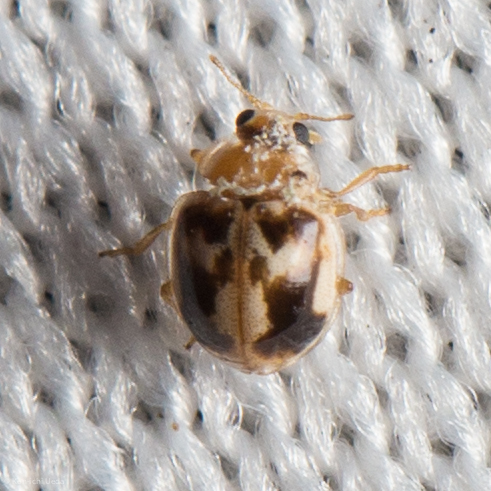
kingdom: Animalia
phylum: Arthropoda
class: Insecta
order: Coleoptera
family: Coccinellidae
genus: Psyllobora
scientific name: Psyllobora renifer
